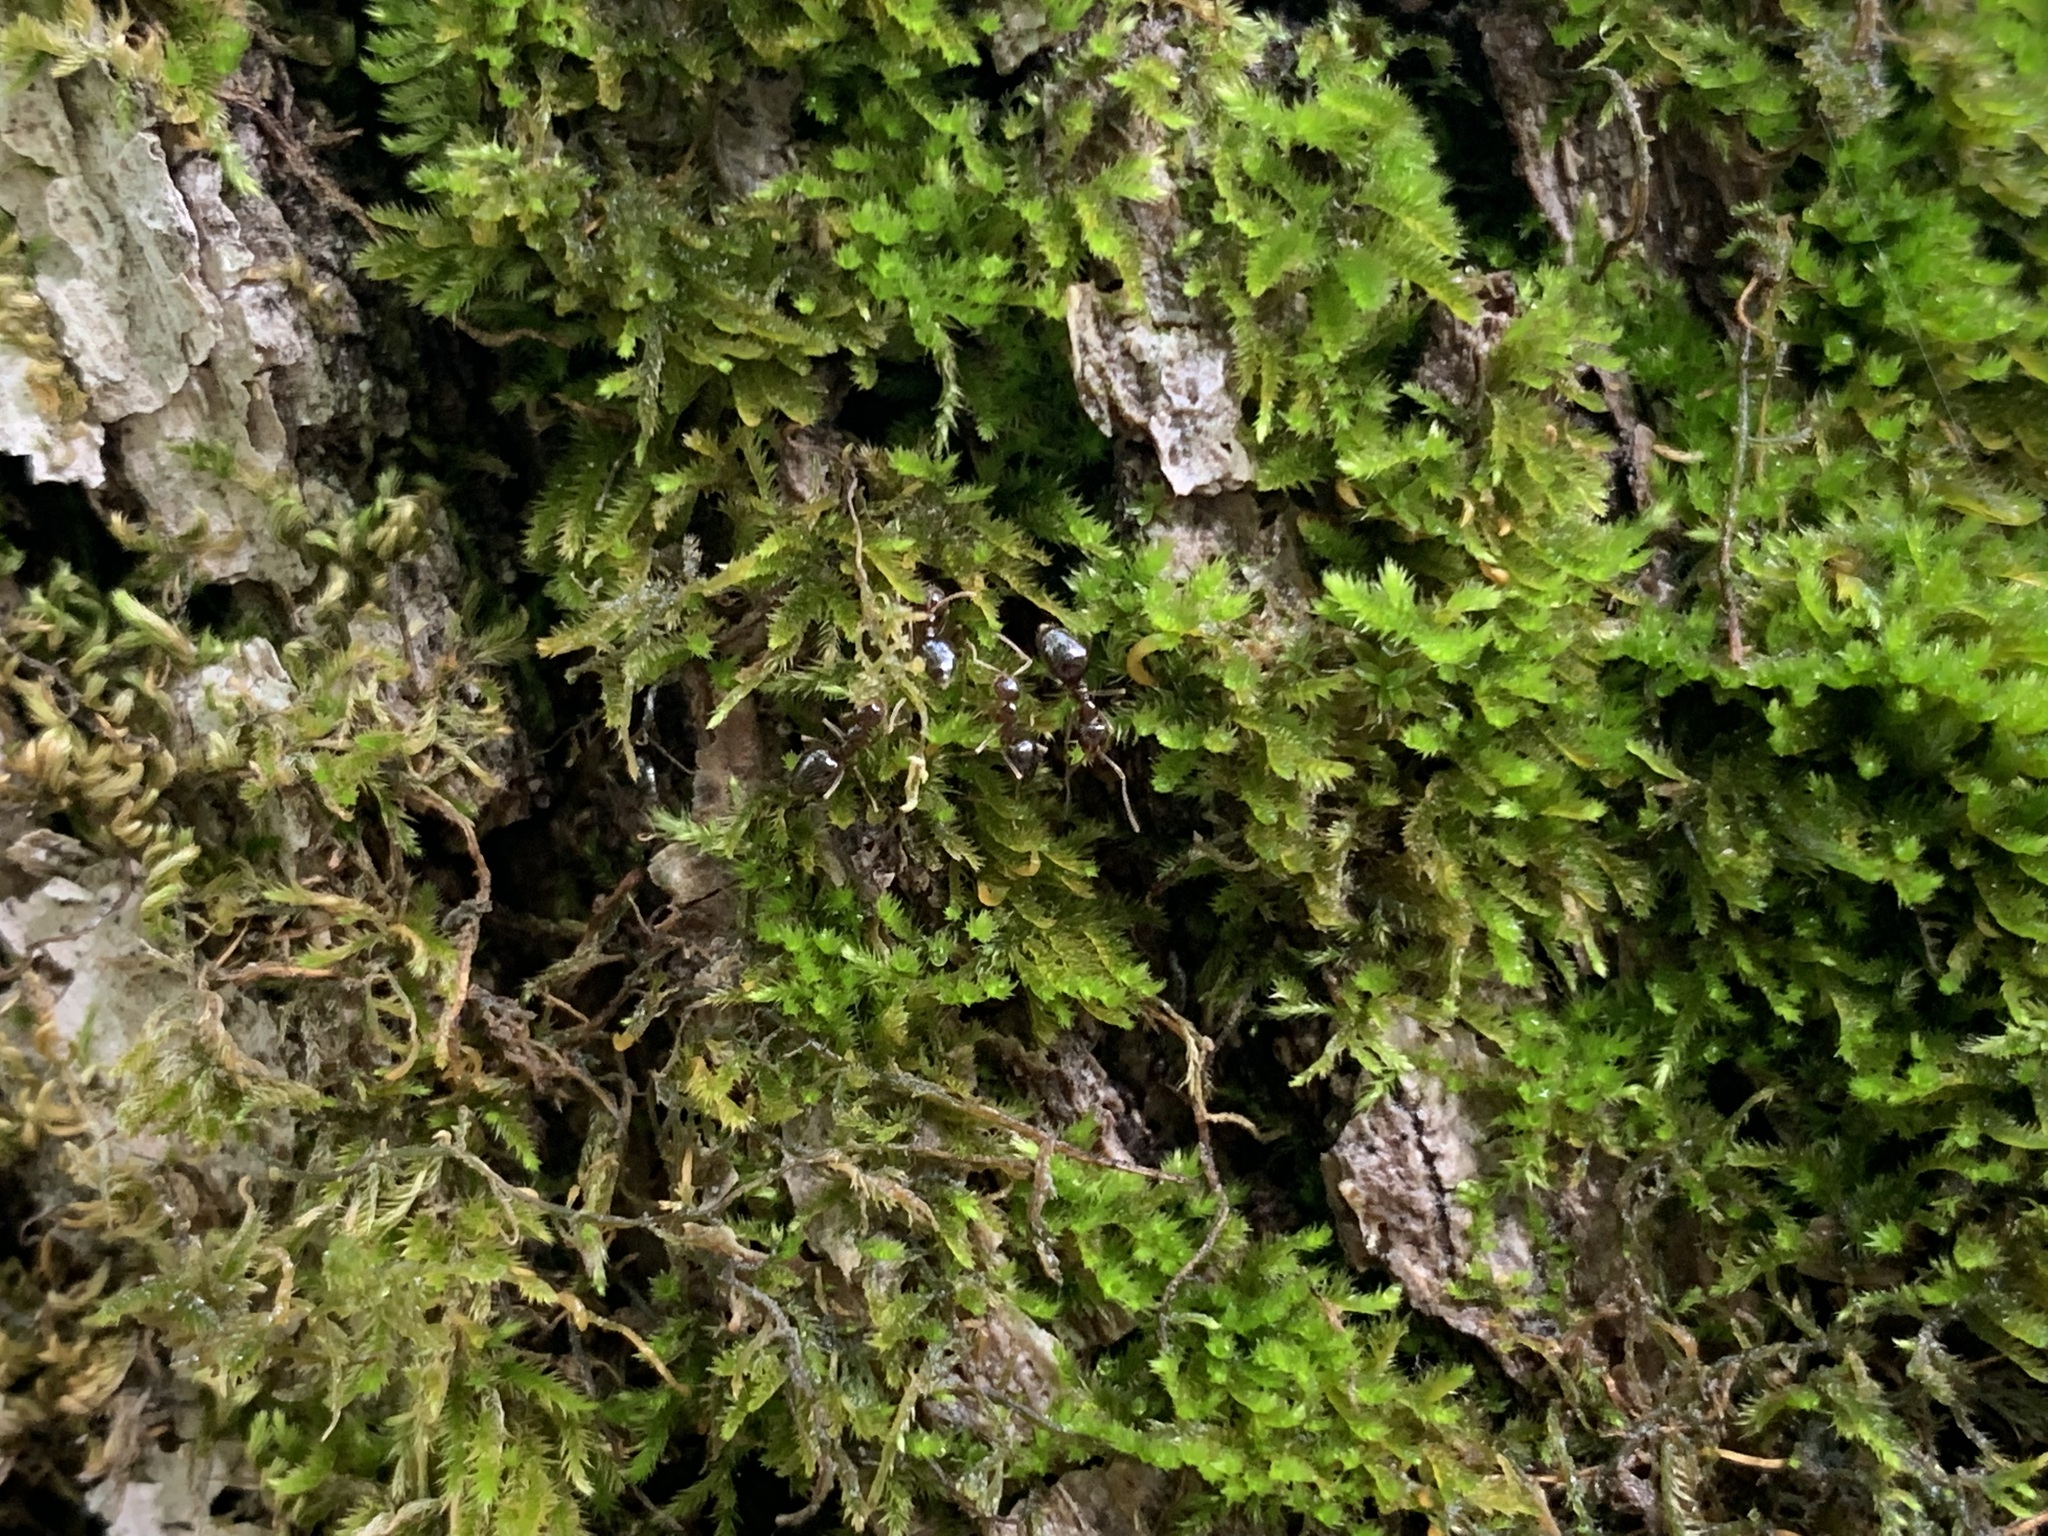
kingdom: Animalia
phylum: Arthropoda
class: Insecta
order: Hymenoptera
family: Formicidae
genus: Prenolepis
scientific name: Prenolepis imparis
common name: Small honey ant
